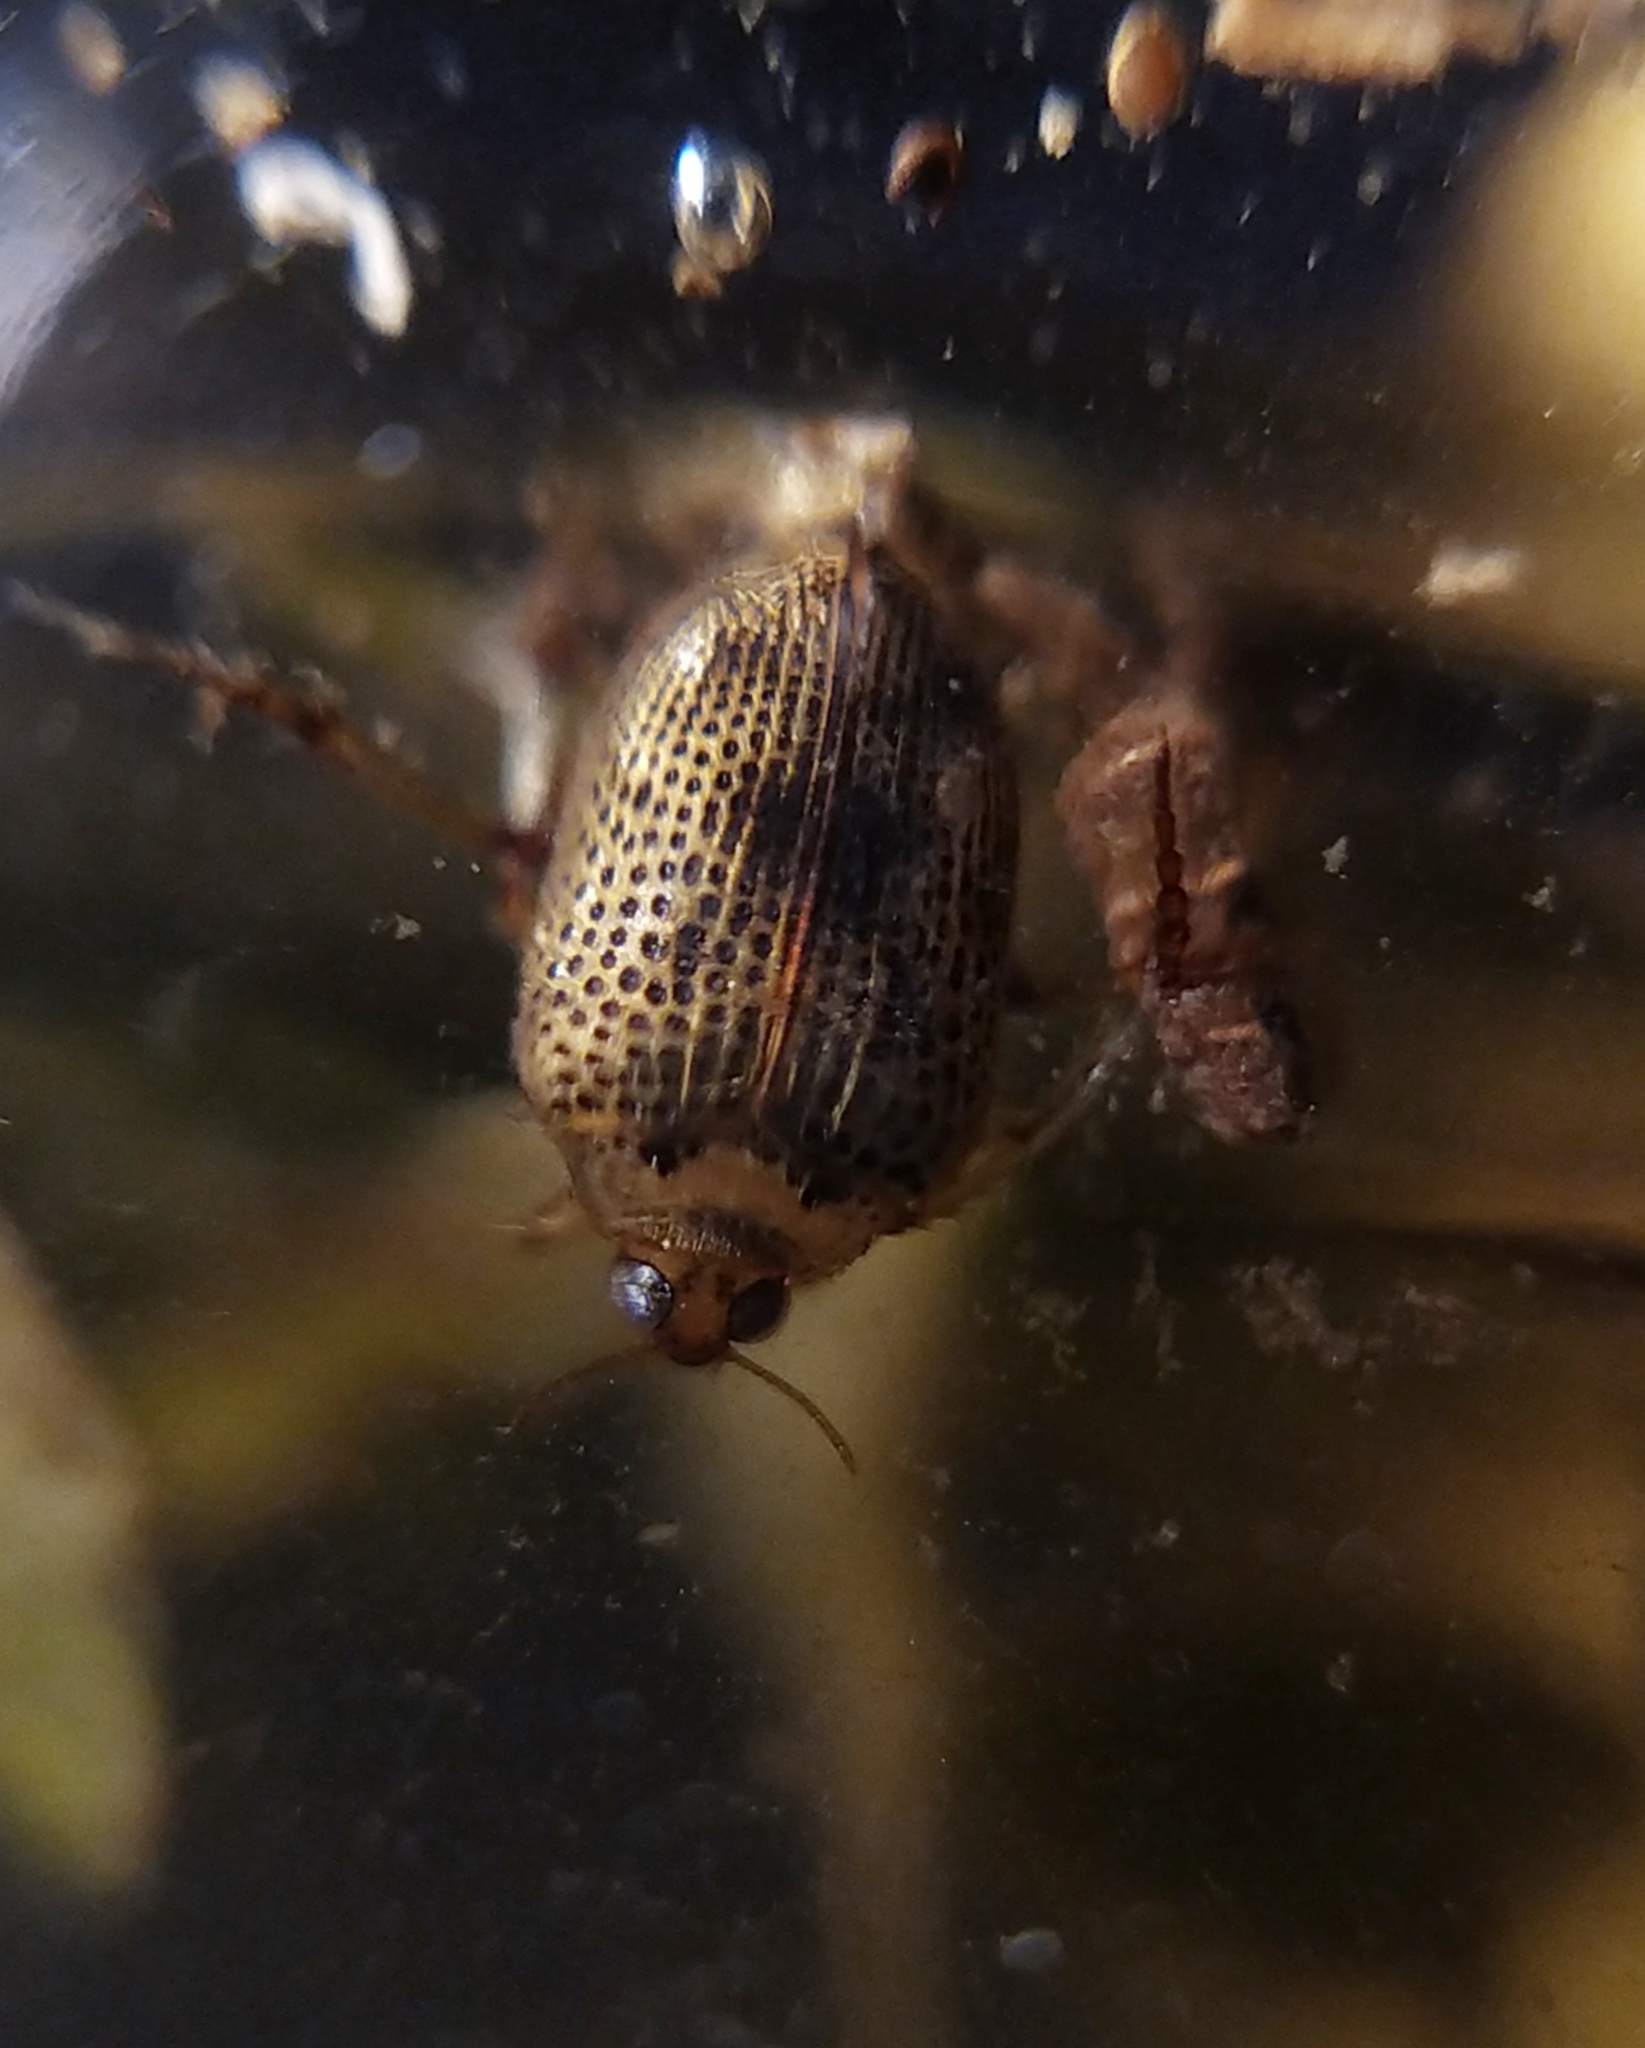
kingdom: Animalia
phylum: Arthropoda
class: Insecta
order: Coleoptera
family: Haliplidae
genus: Peltodytes
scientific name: Peltodytes caesus
